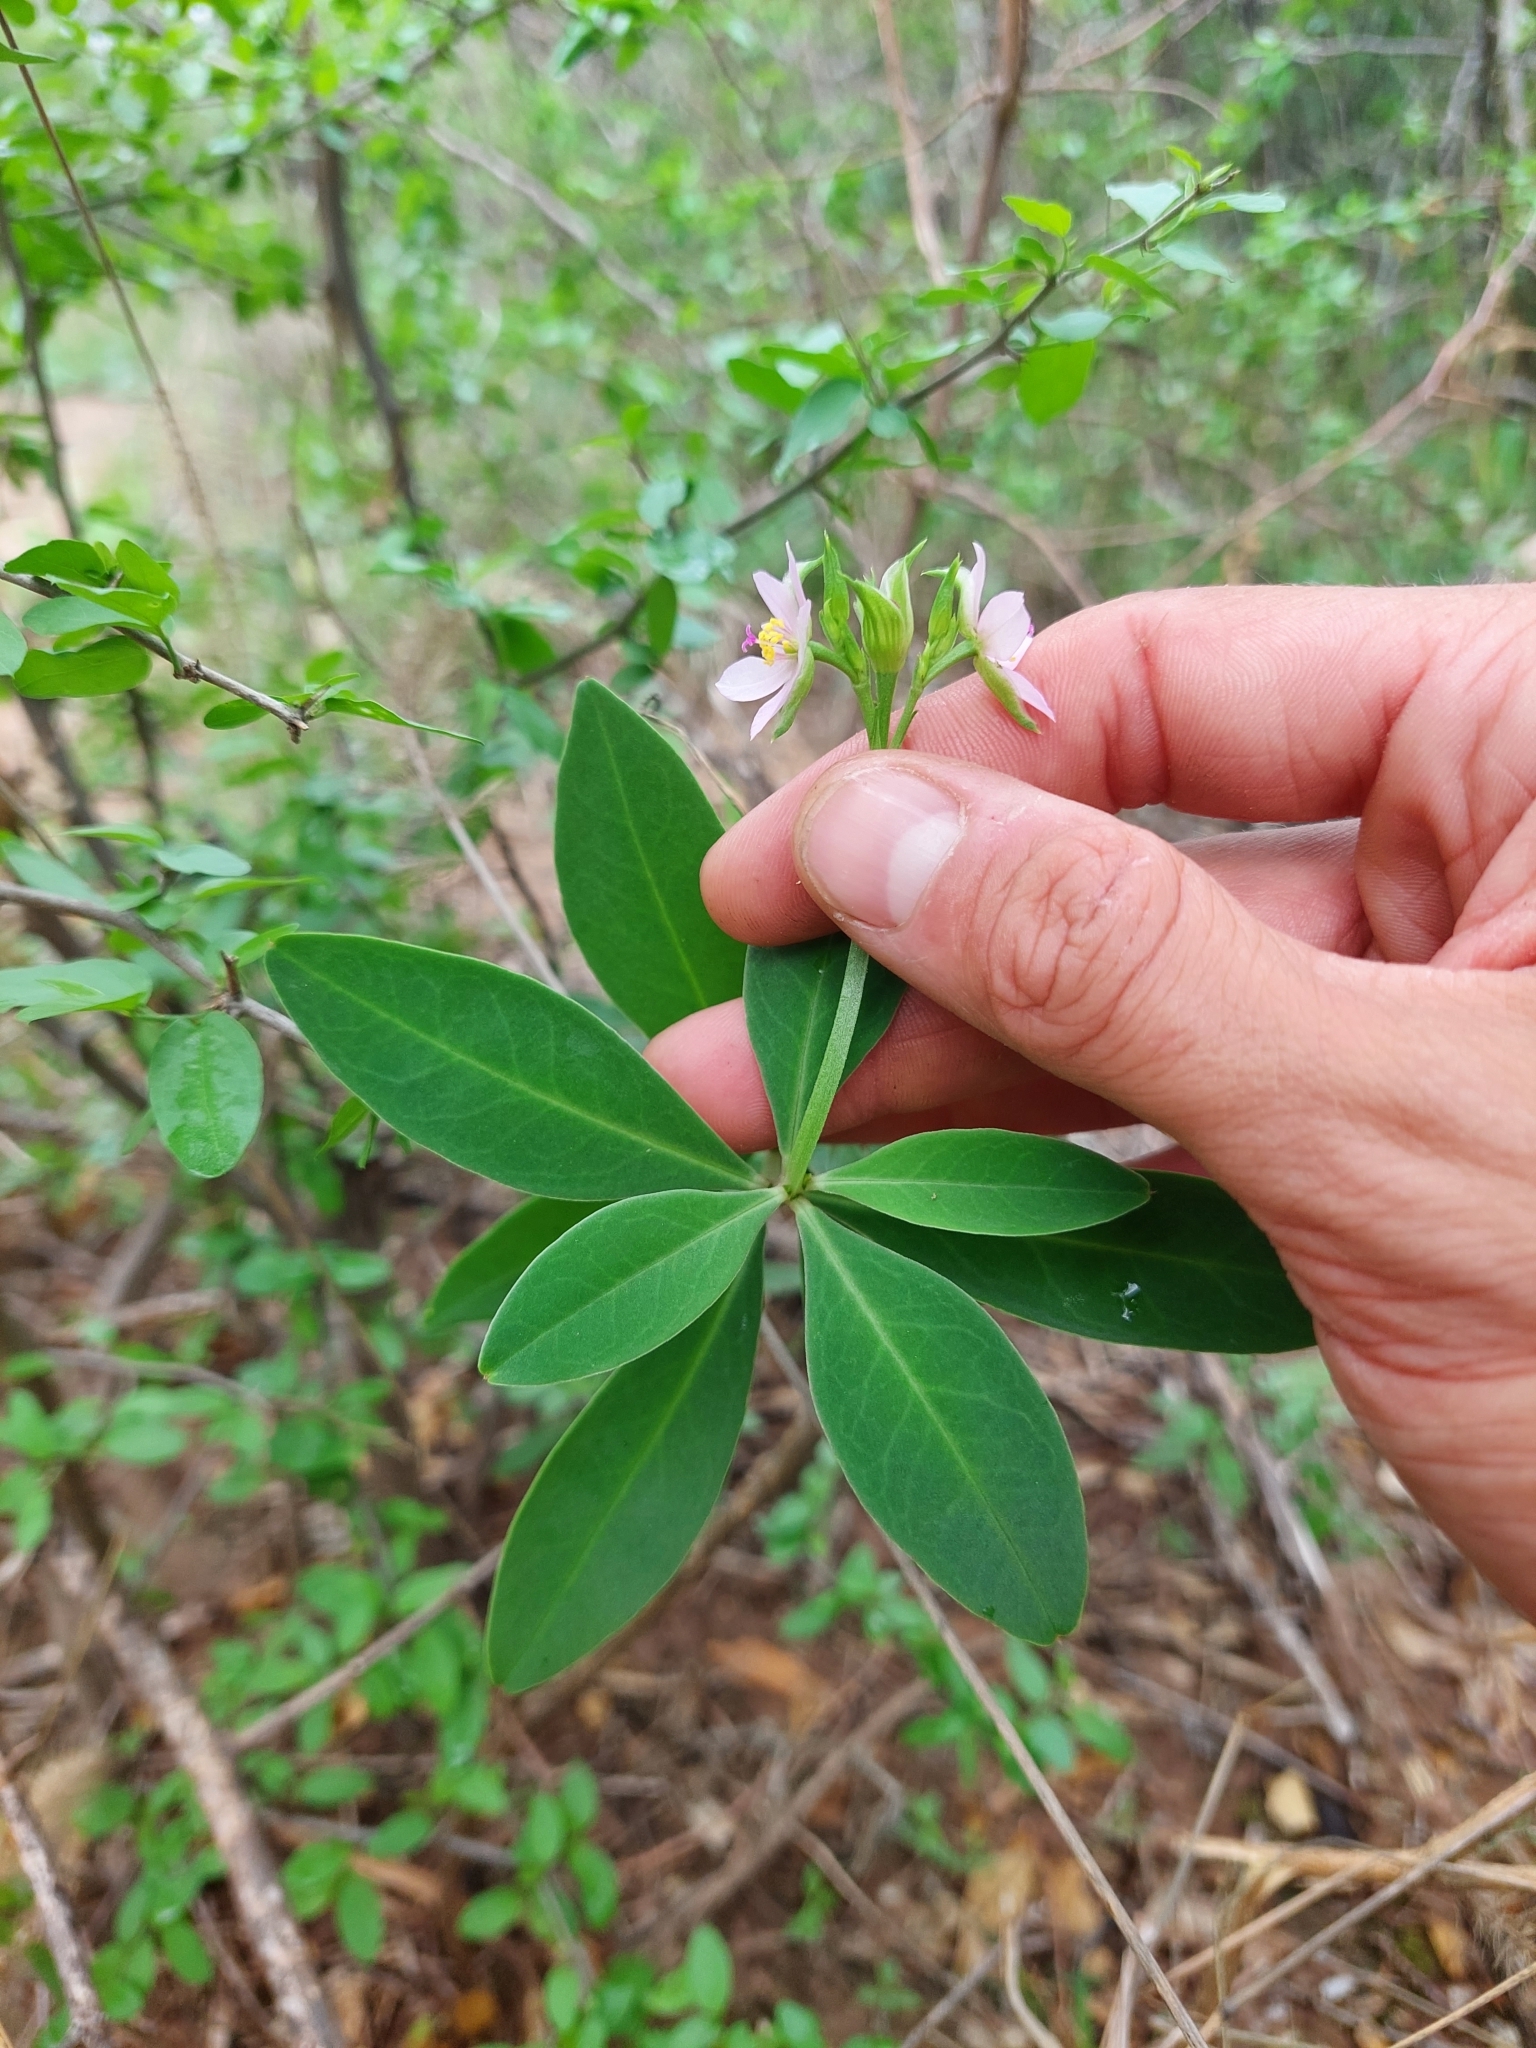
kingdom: Plantae
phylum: Tracheophyta
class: Magnoliopsida
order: Caryophyllales
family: Talinaceae
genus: Talinum
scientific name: Talinum fruticosum
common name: Verdolaga-francesa
